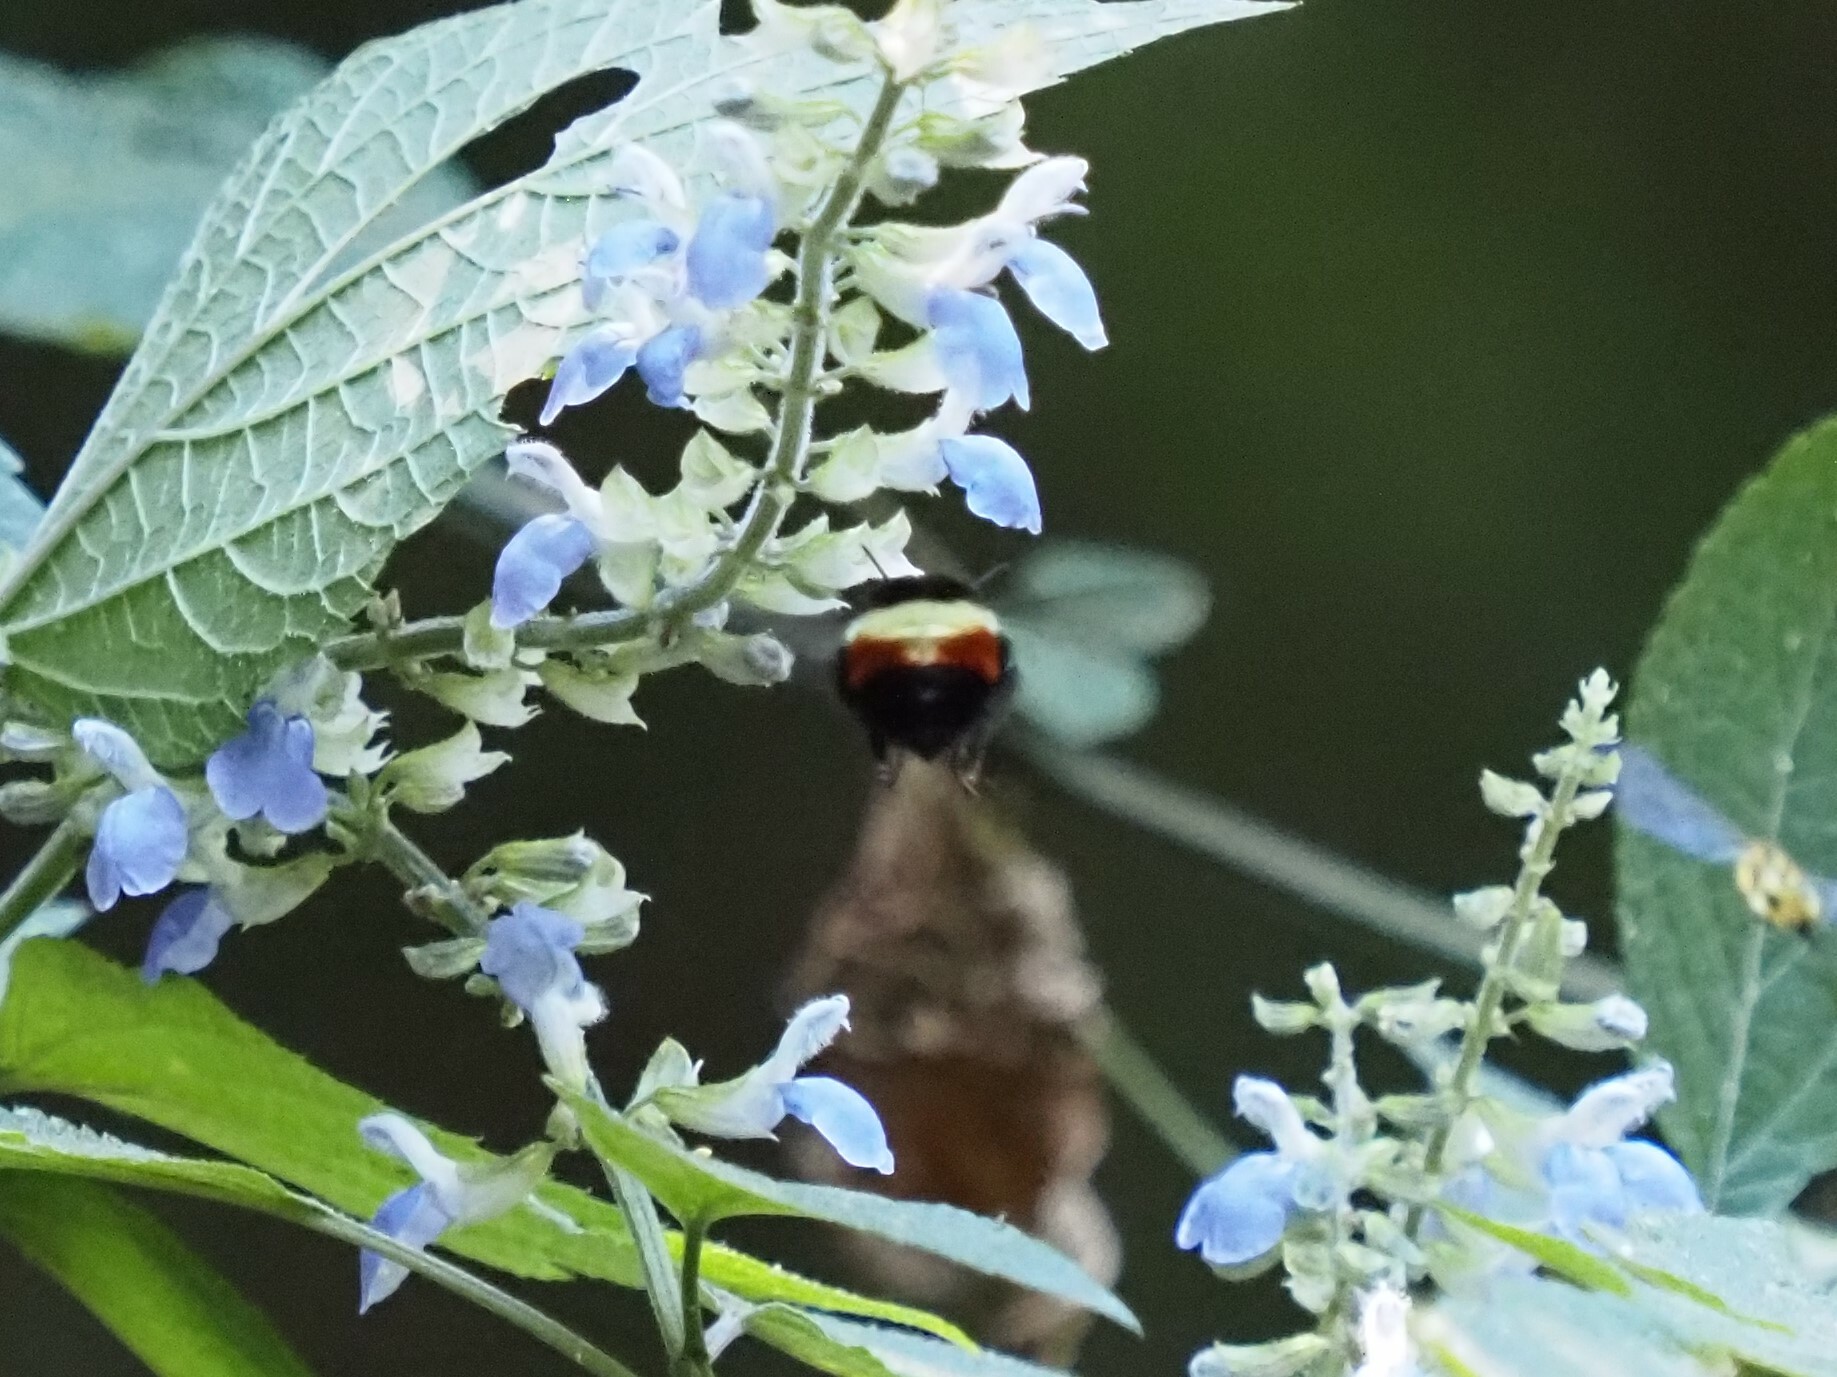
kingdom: Animalia
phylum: Arthropoda
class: Insecta
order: Hymenoptera
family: Apidae
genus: Bombus
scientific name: Bombus ephippiatus
